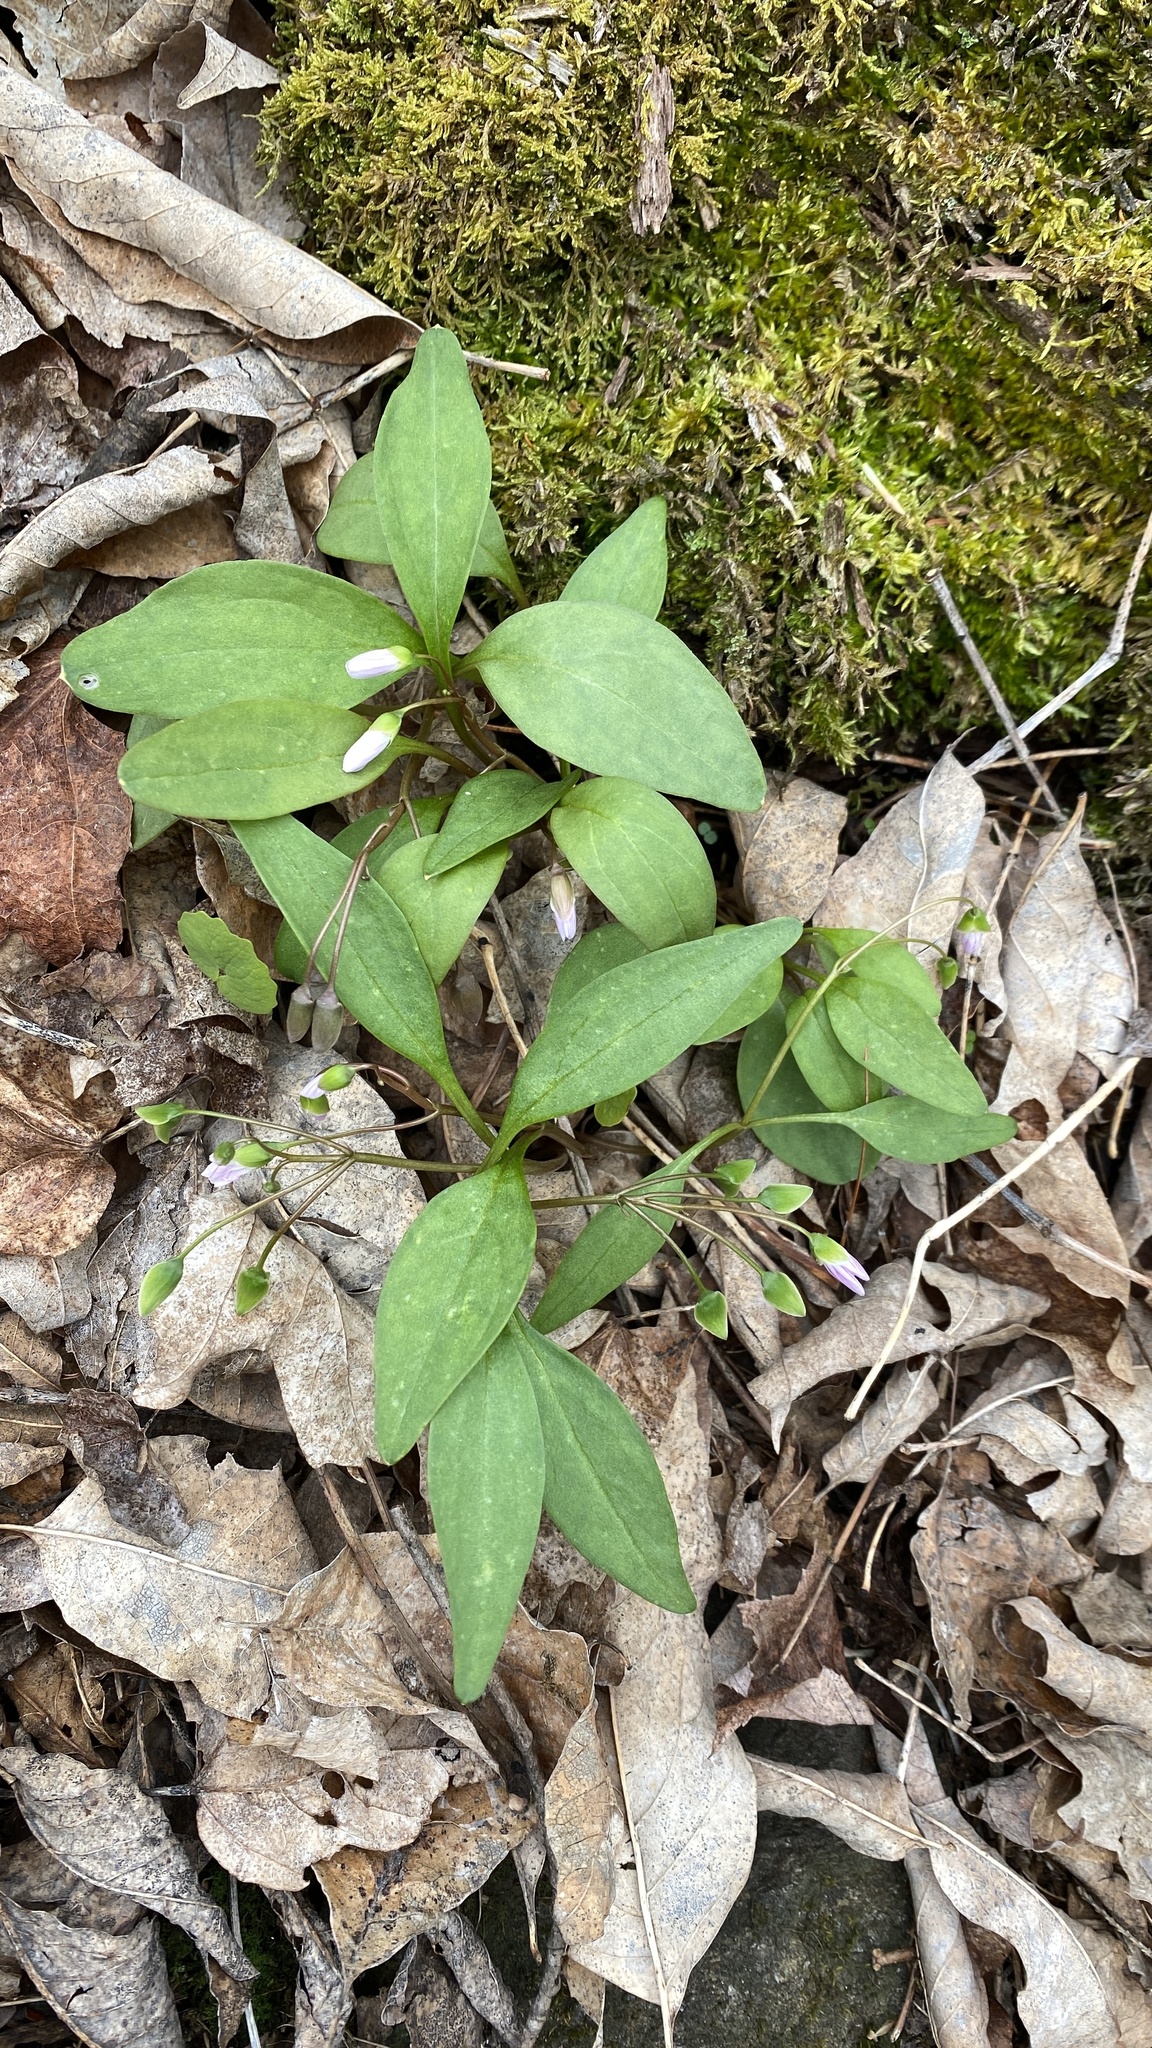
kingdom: Plantae
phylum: Tracheophyta
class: Magnoliopsida
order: Caryophyllales
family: Montiaceae
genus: Claytonia
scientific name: Claytonia caroliniana
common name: Carolina spring beauty
